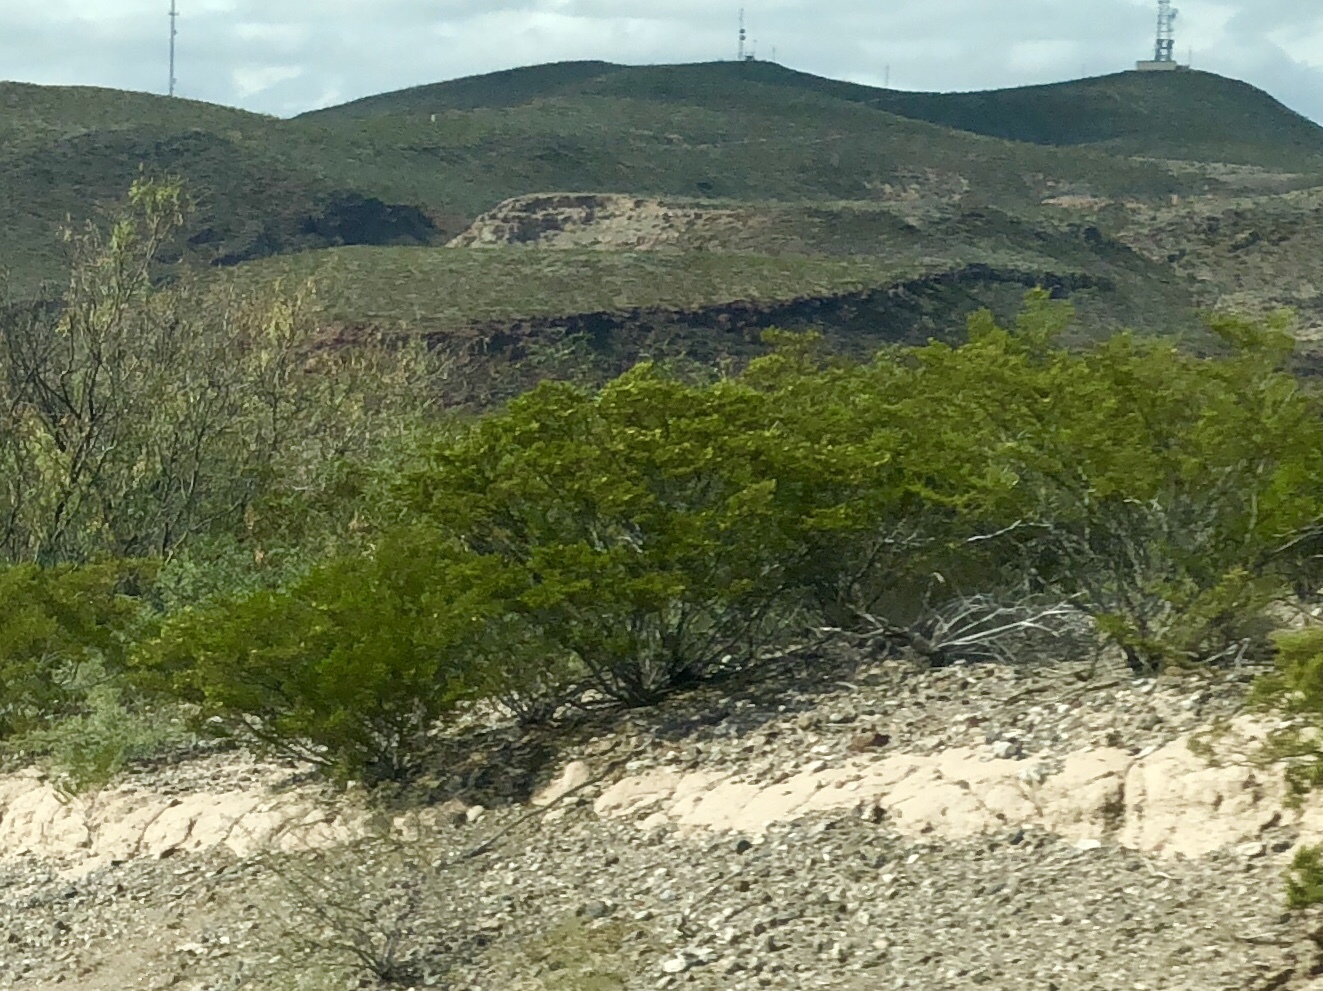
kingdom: Plantae
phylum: Tracheophyta
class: Magnoliopsida
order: Zygophyllales
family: Zygophyllaceae
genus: Larrea
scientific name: Larrea tridentata
